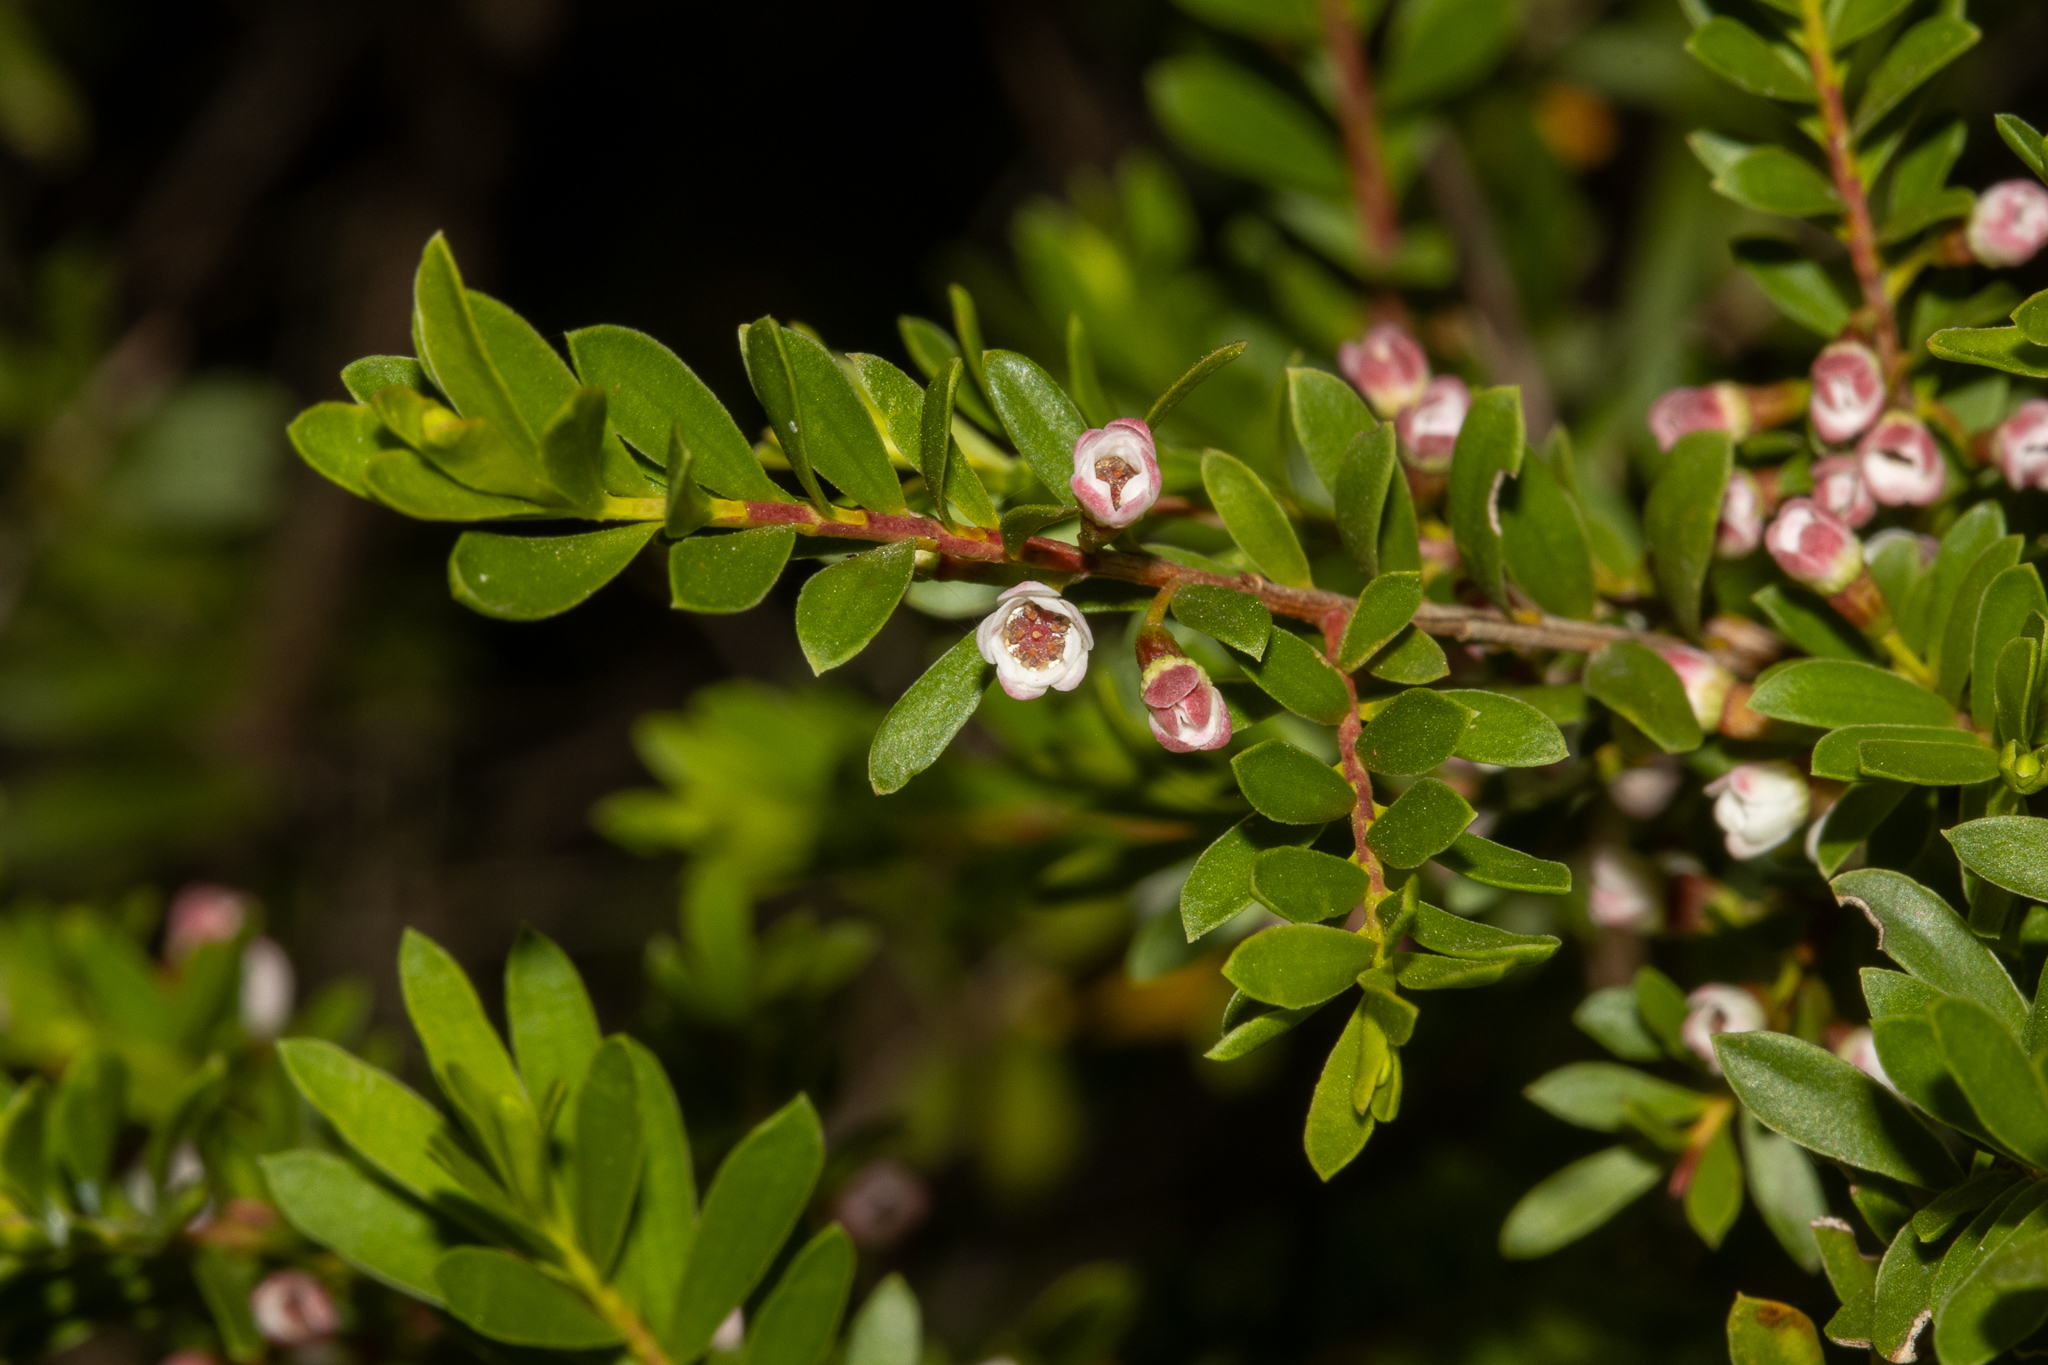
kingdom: Plantae
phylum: Tracheophyta
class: Magnoliopsida
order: Myrtales
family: Myrtaceae
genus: Thryptomene
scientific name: Thryptomene calycina
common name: Grampians thryptomene
